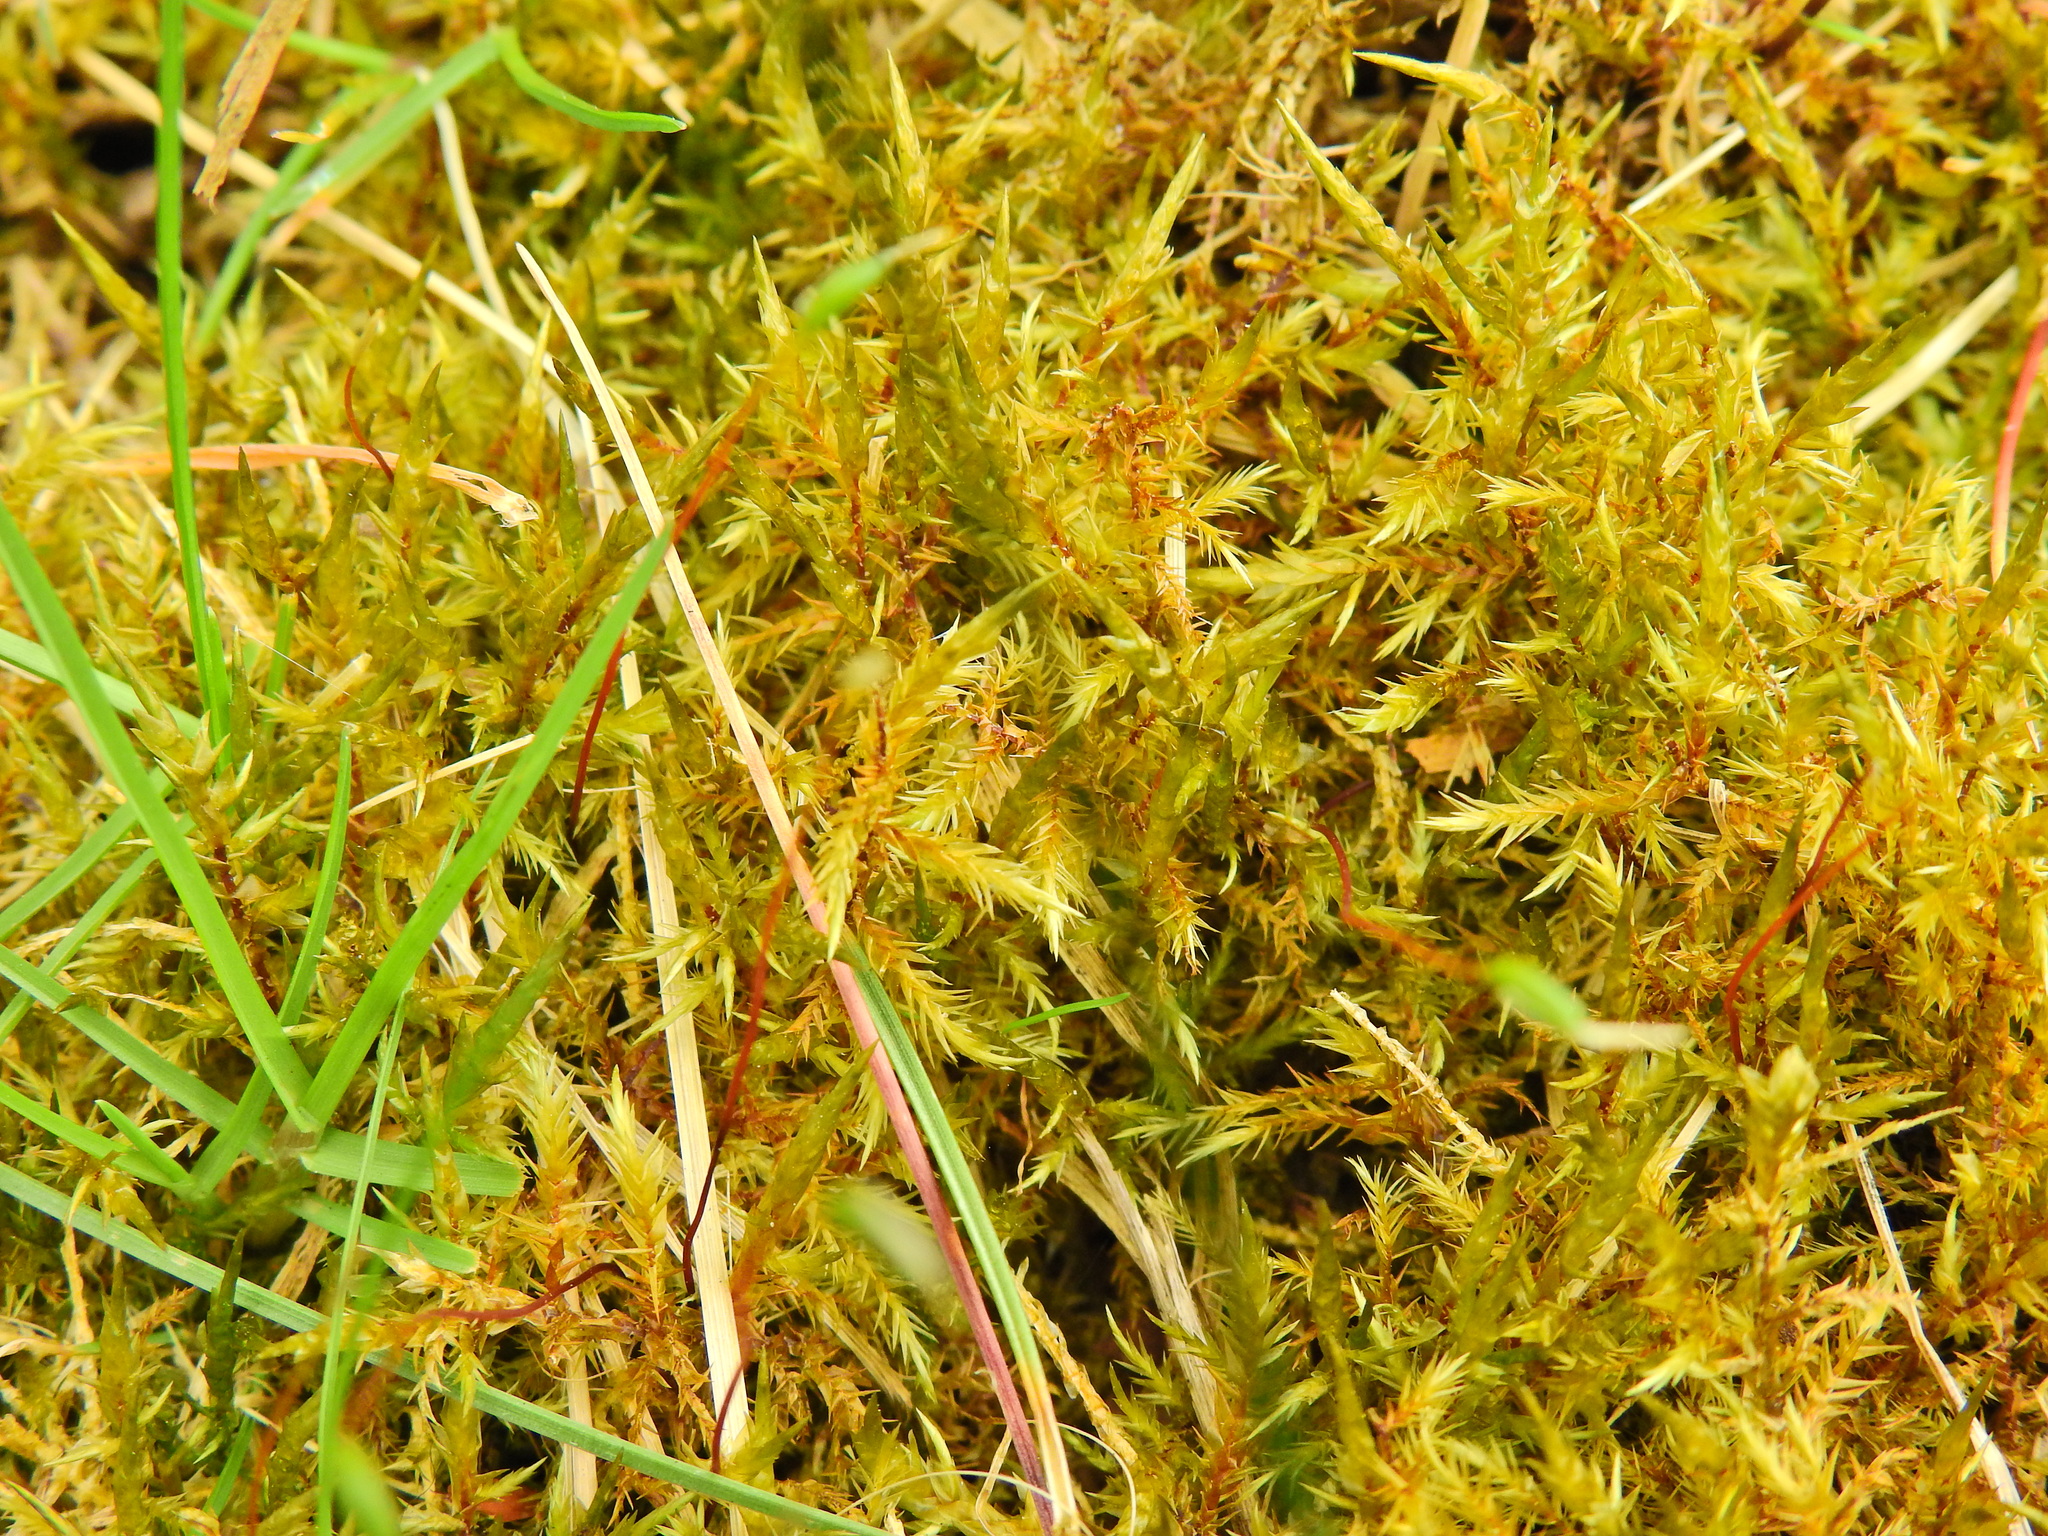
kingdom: Plantae
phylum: Bryophyta
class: Bryopsida
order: Hypnales
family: Pylaisiaceae
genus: Calliergonella
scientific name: Calliergonella cuspidata
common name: Common large wetland moss
